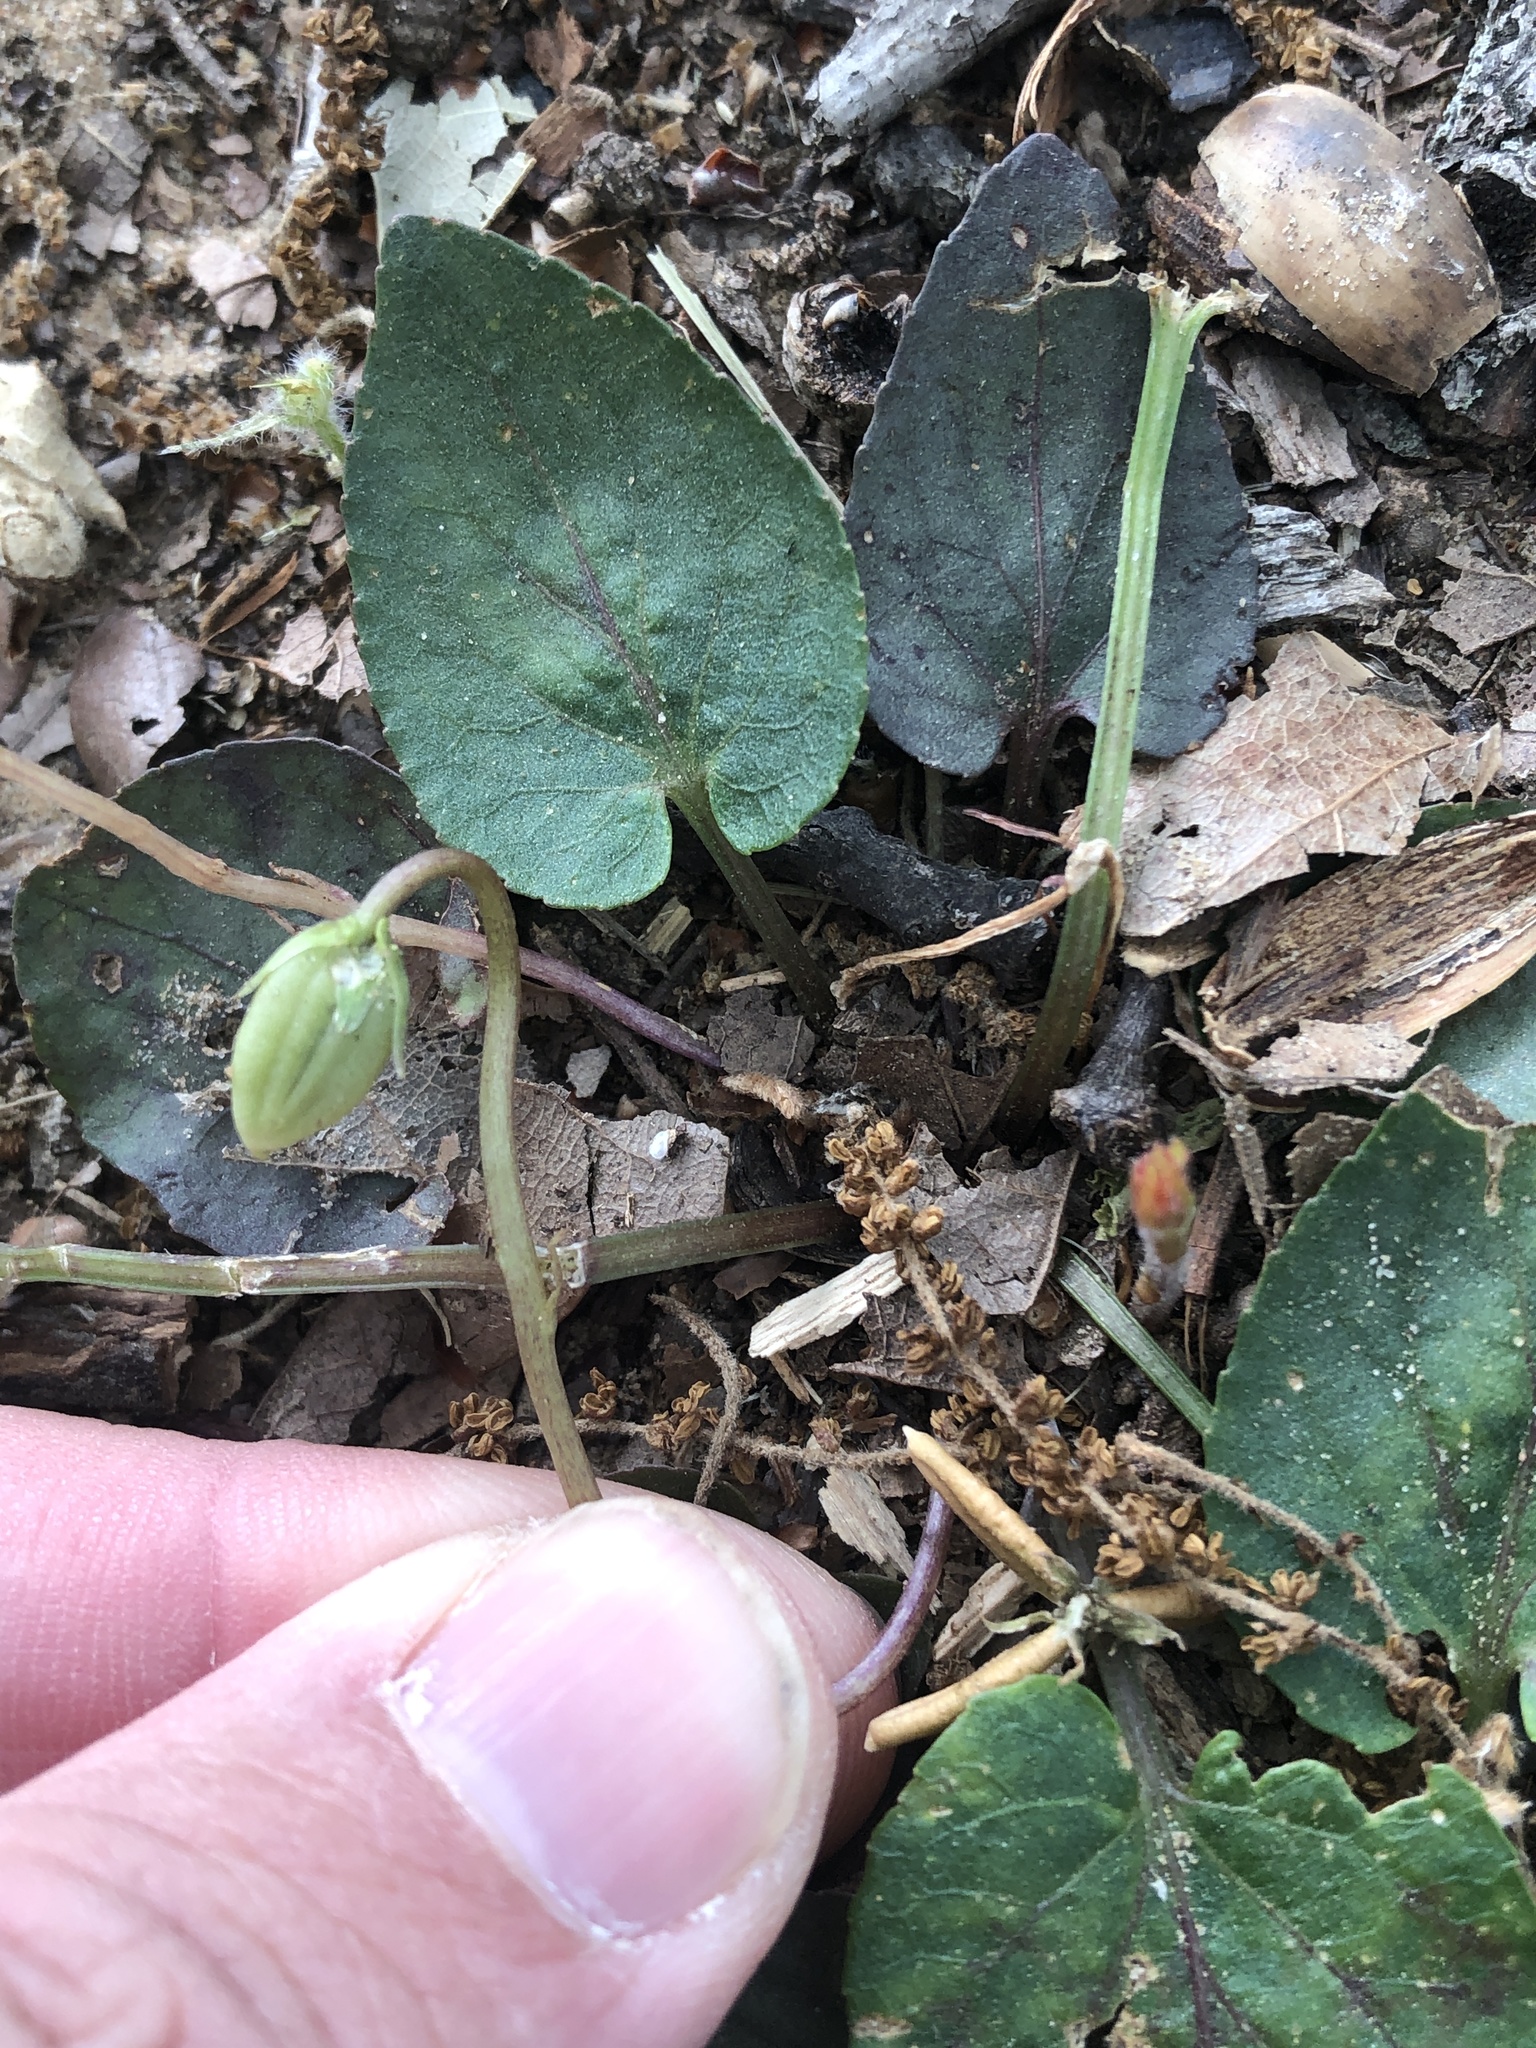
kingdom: Plantae
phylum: Tracheophyta
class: Magnoliopsida
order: Malpighiales
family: Violaceae
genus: Viola
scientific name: Viola villosa
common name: Carolina violet
